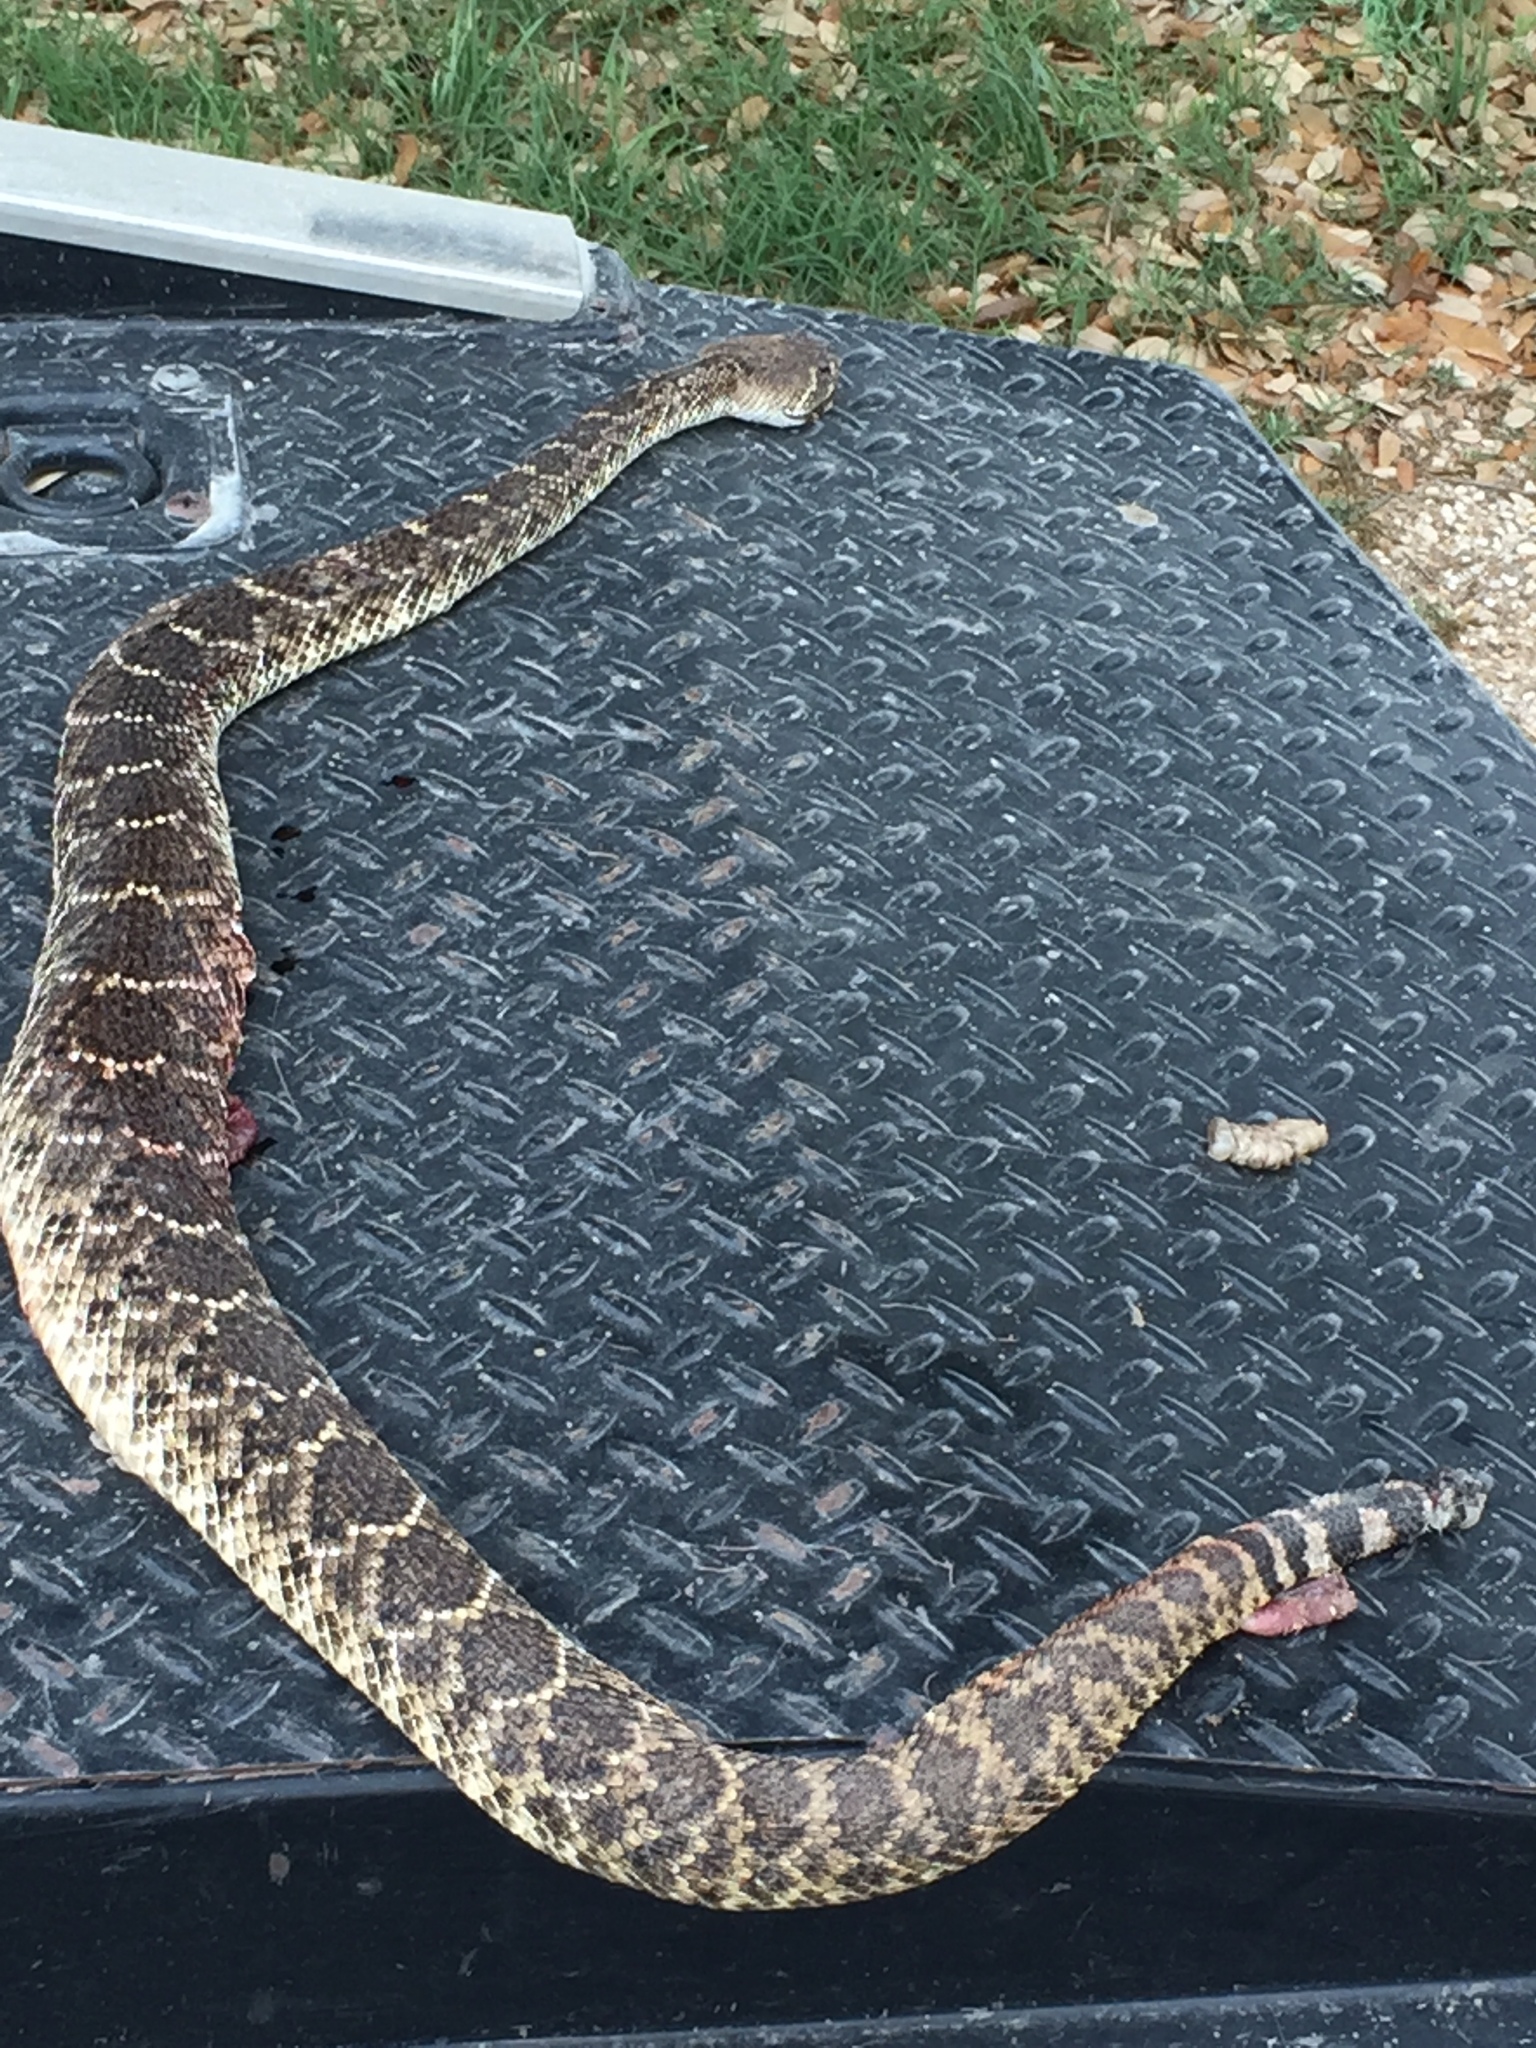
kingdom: Animalia
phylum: Chordata
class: Squamata
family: Viperidae
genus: Crotalus
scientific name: Crotalus atrox
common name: Western diamond-backed rattlesnake
